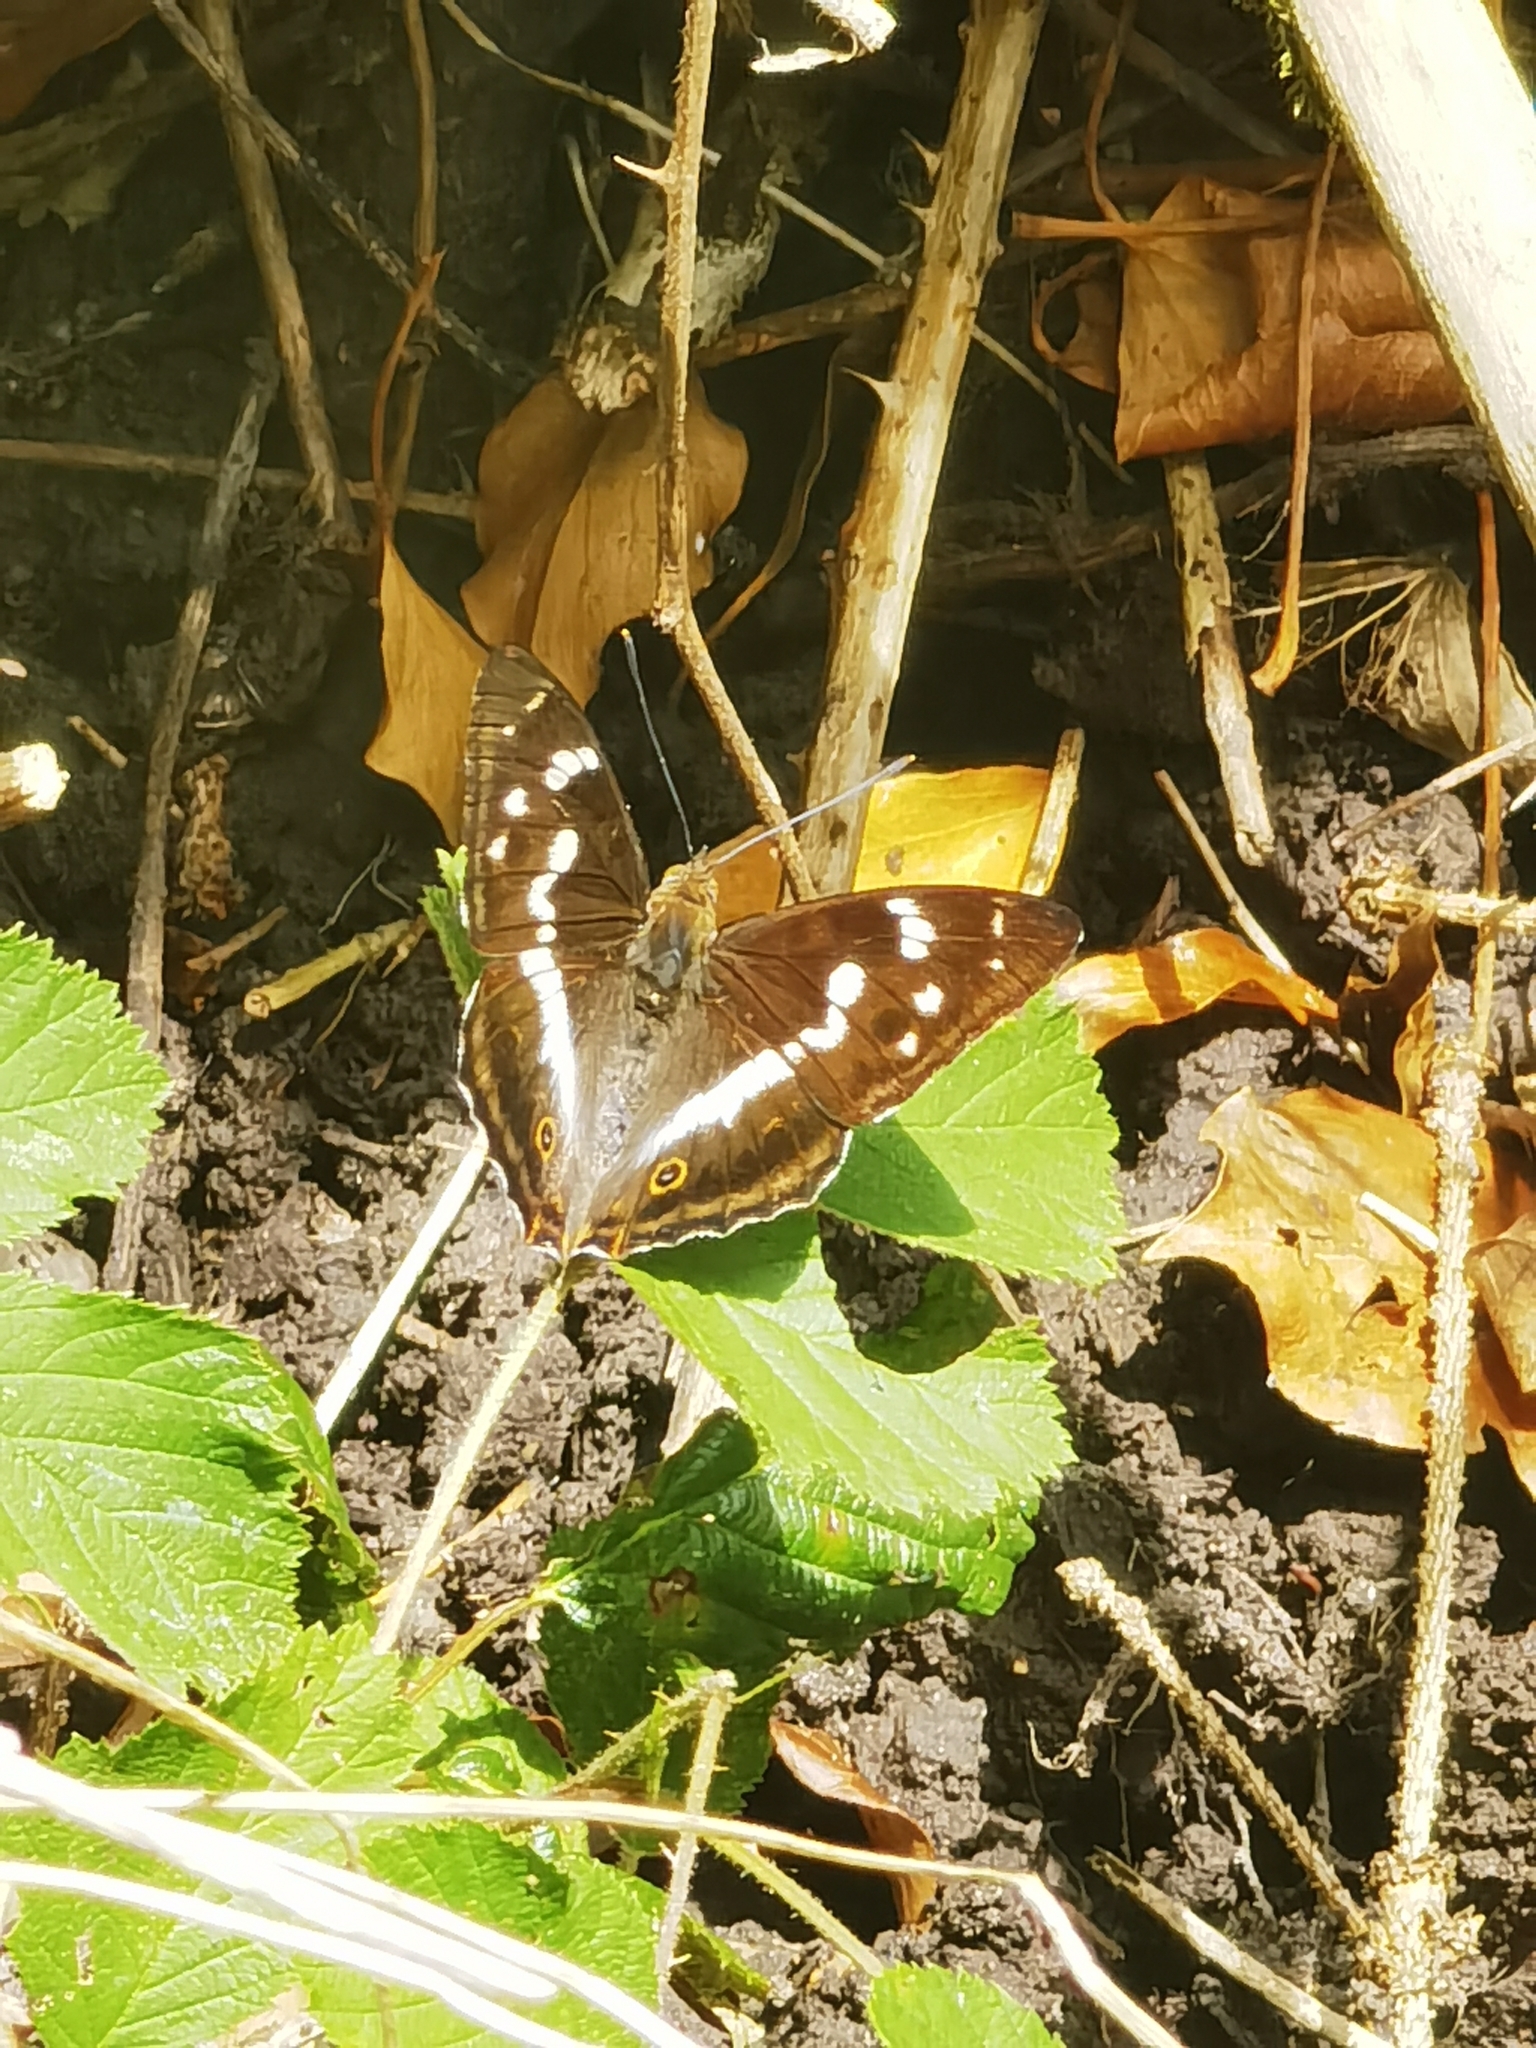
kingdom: Animalia
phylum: Arthropoda
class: Insecta
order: Lepidoptera
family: Nymphalidae
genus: Apatura
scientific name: Apatura iris
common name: Purple emperor
